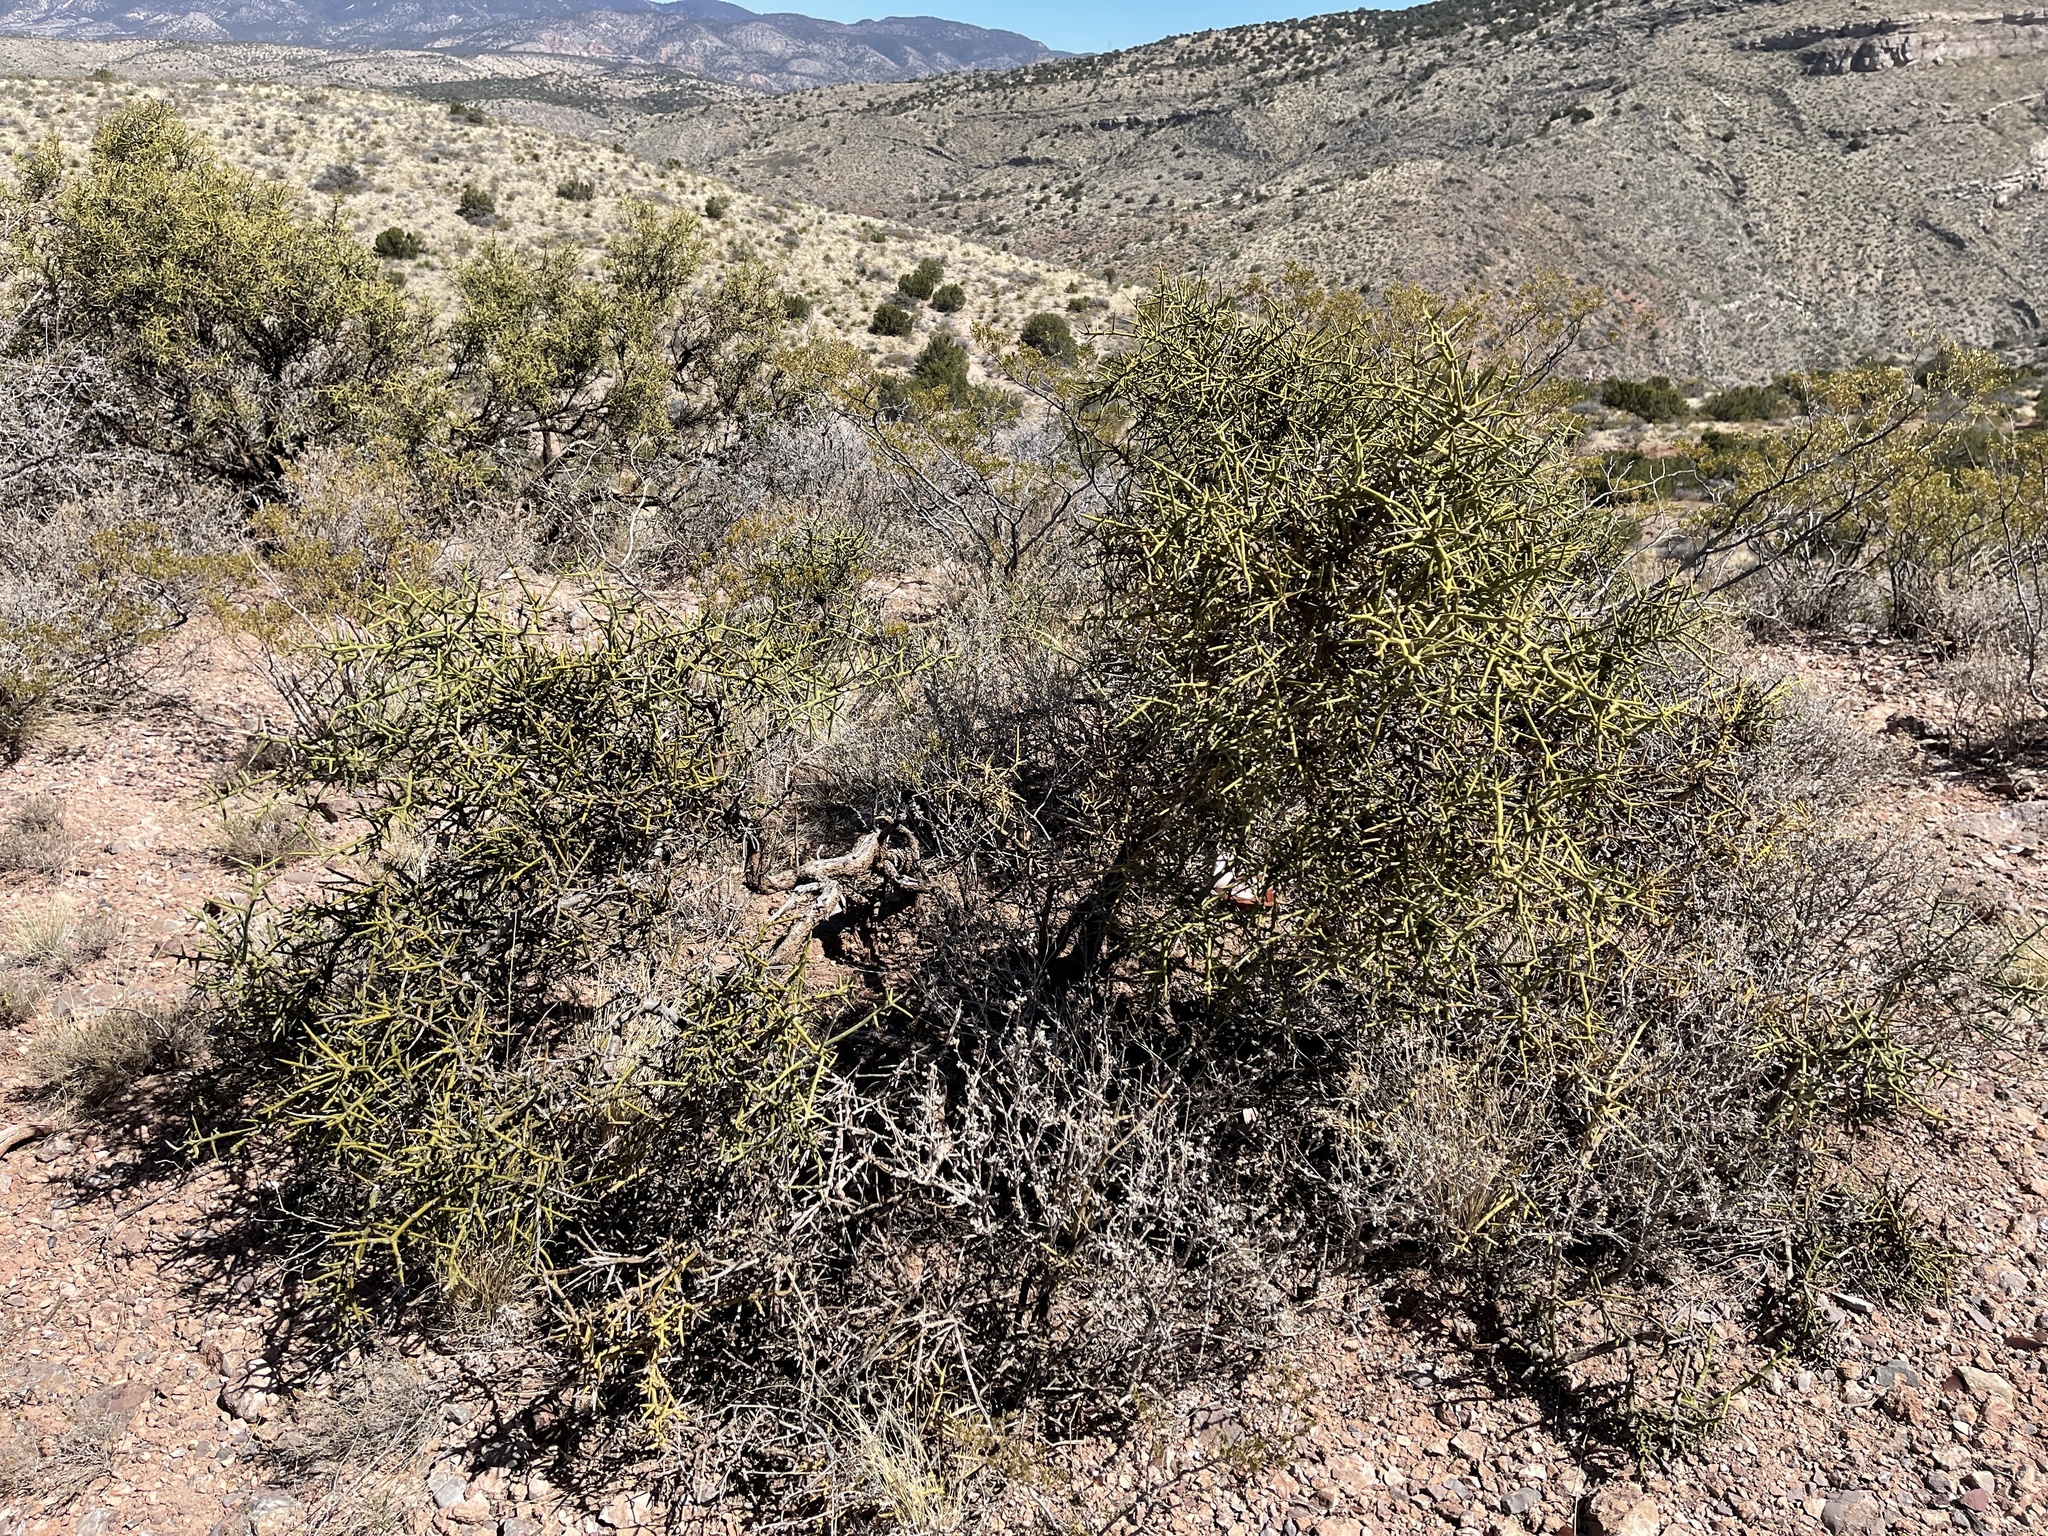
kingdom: Plantae
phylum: Tracheophyta
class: Magnoliopsida
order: Brassicales
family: Koeberliniaceae
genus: Koeberlinia
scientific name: Koeberlinia spinosa
